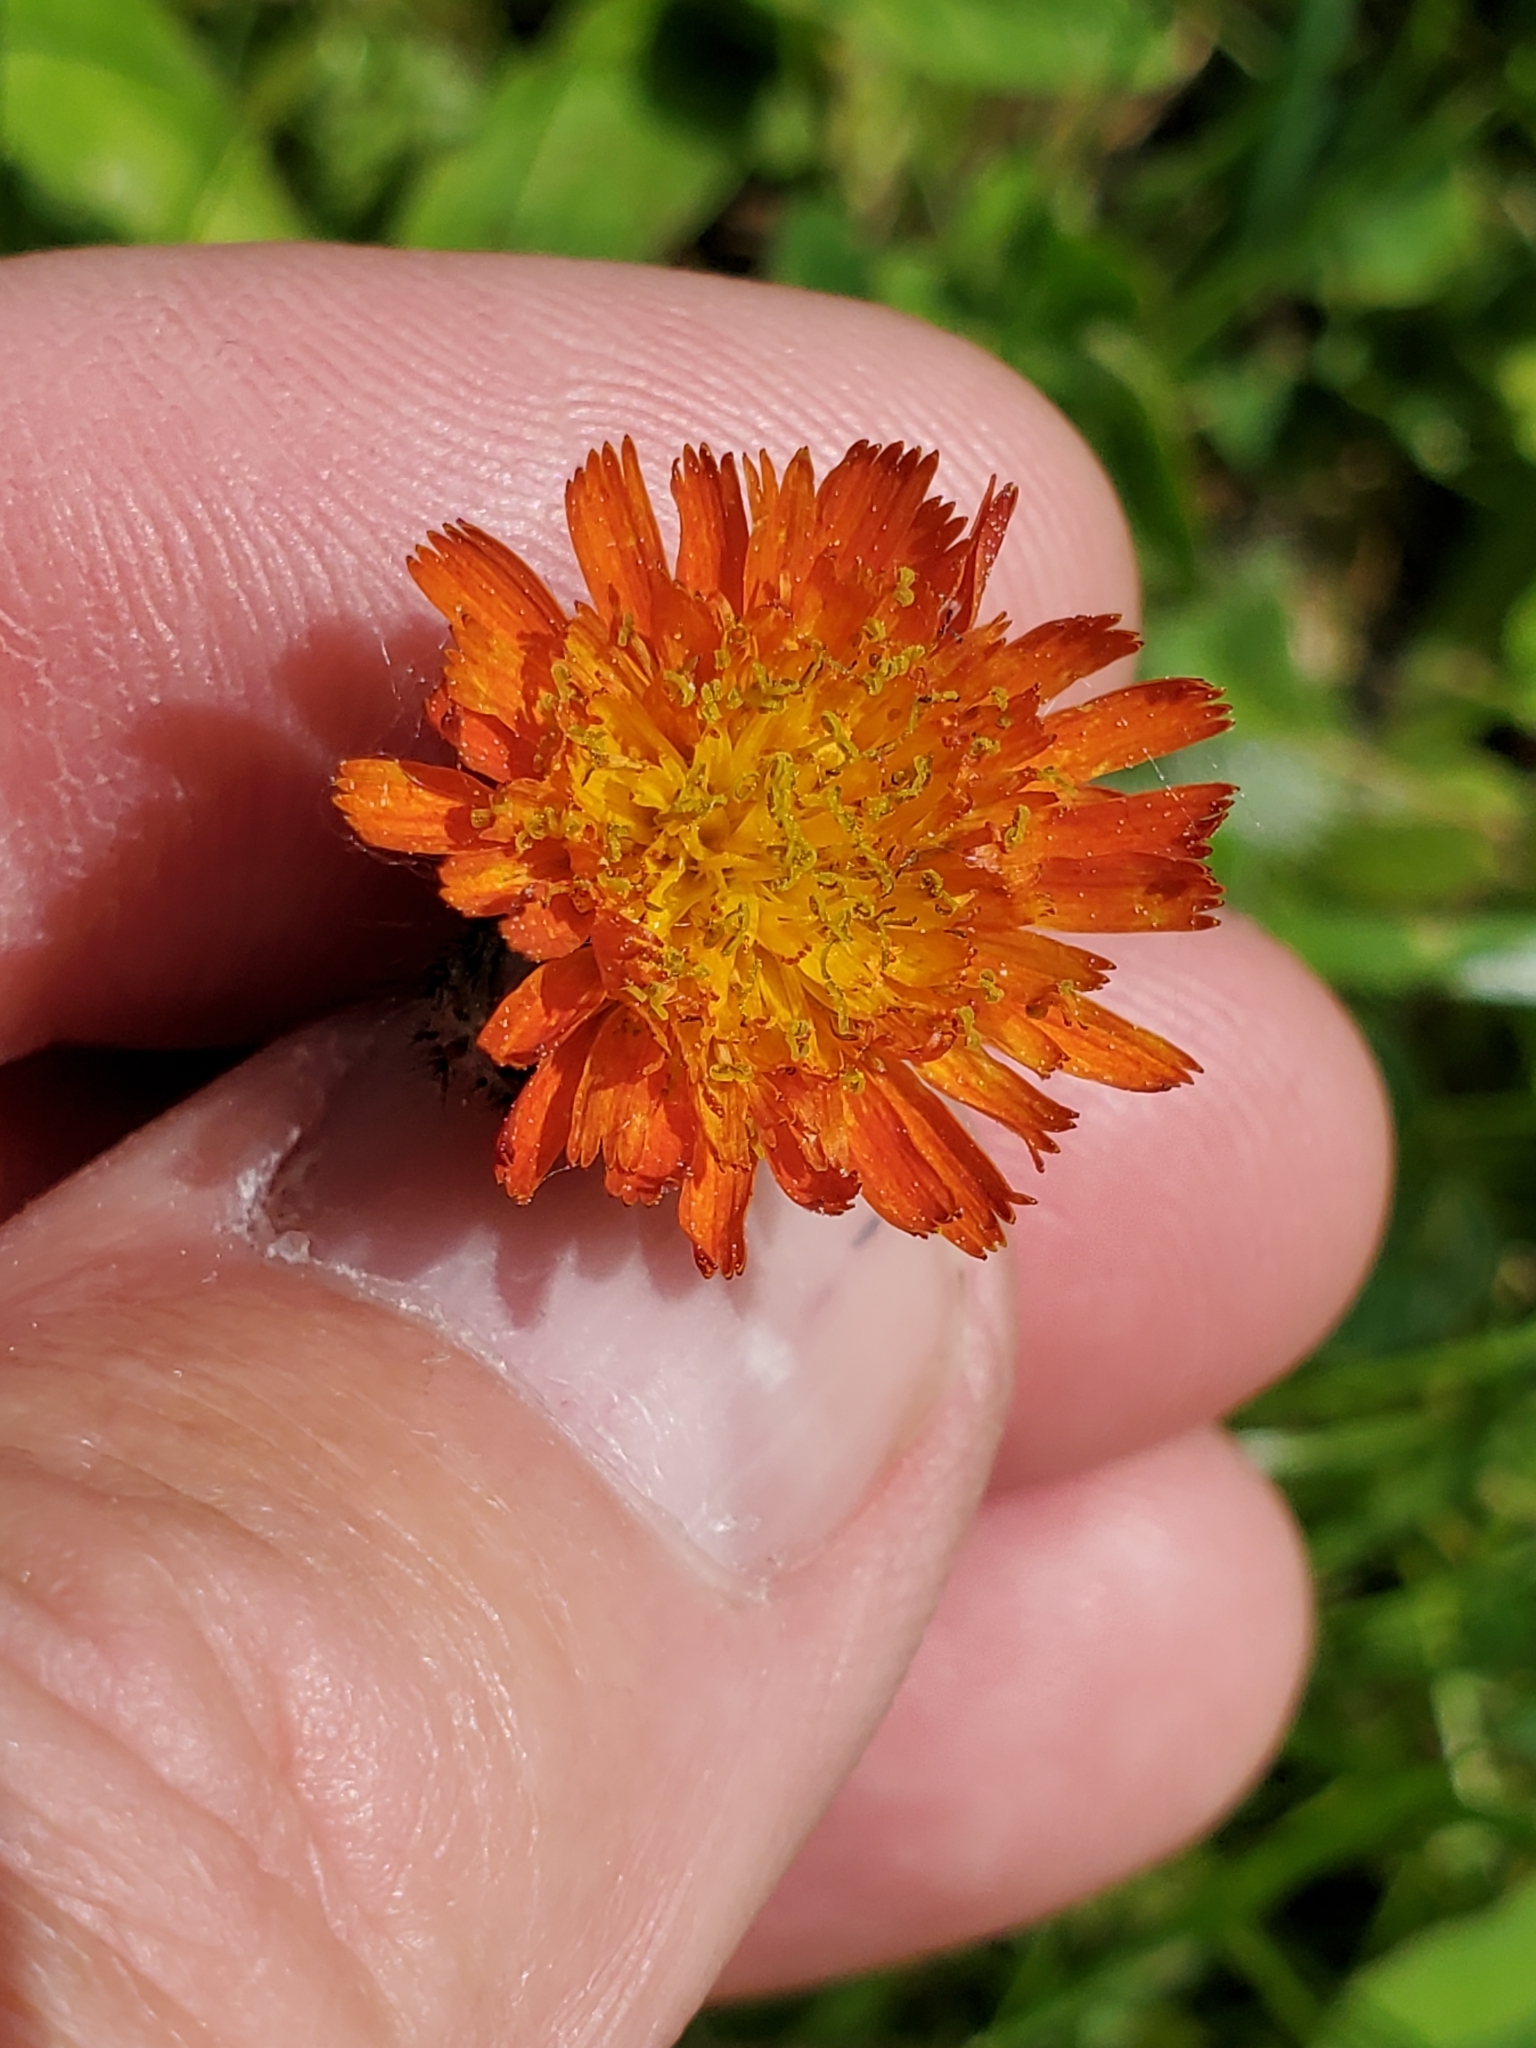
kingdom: Plantae
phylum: Tracheophyta
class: Magnoliopsida
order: Asterales
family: Asteraceae
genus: Pilosella
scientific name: Pilosella aurantiaca
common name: Fox-and-cubs
